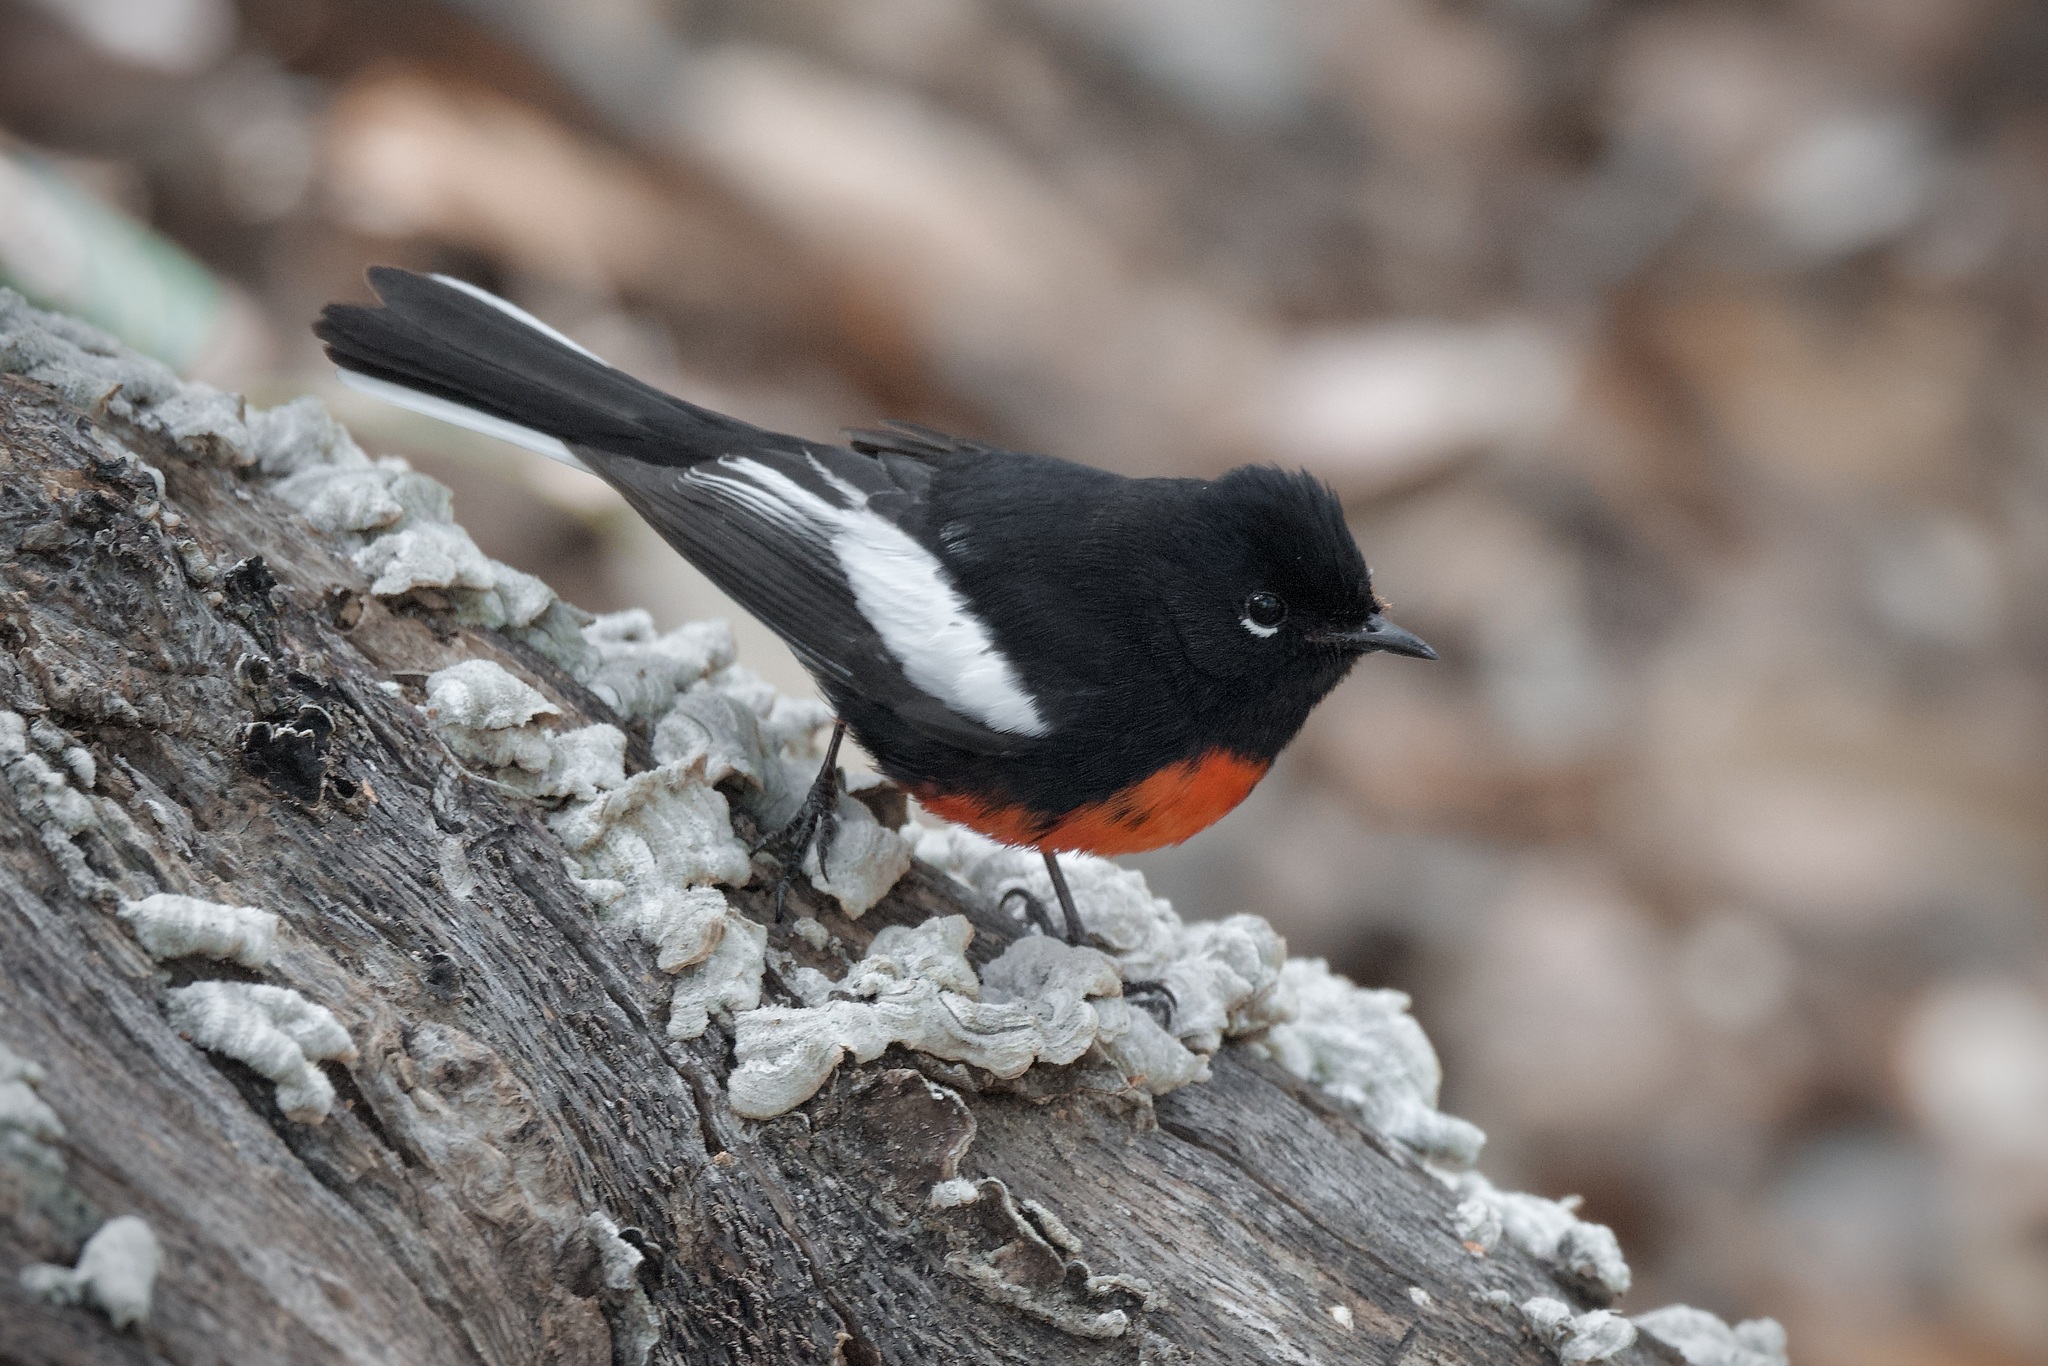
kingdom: Animalia
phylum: Chordata
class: Aves
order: Passeriformes
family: Parulidae
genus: Myioborus
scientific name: Myioborus pictus
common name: Painted whitestart
